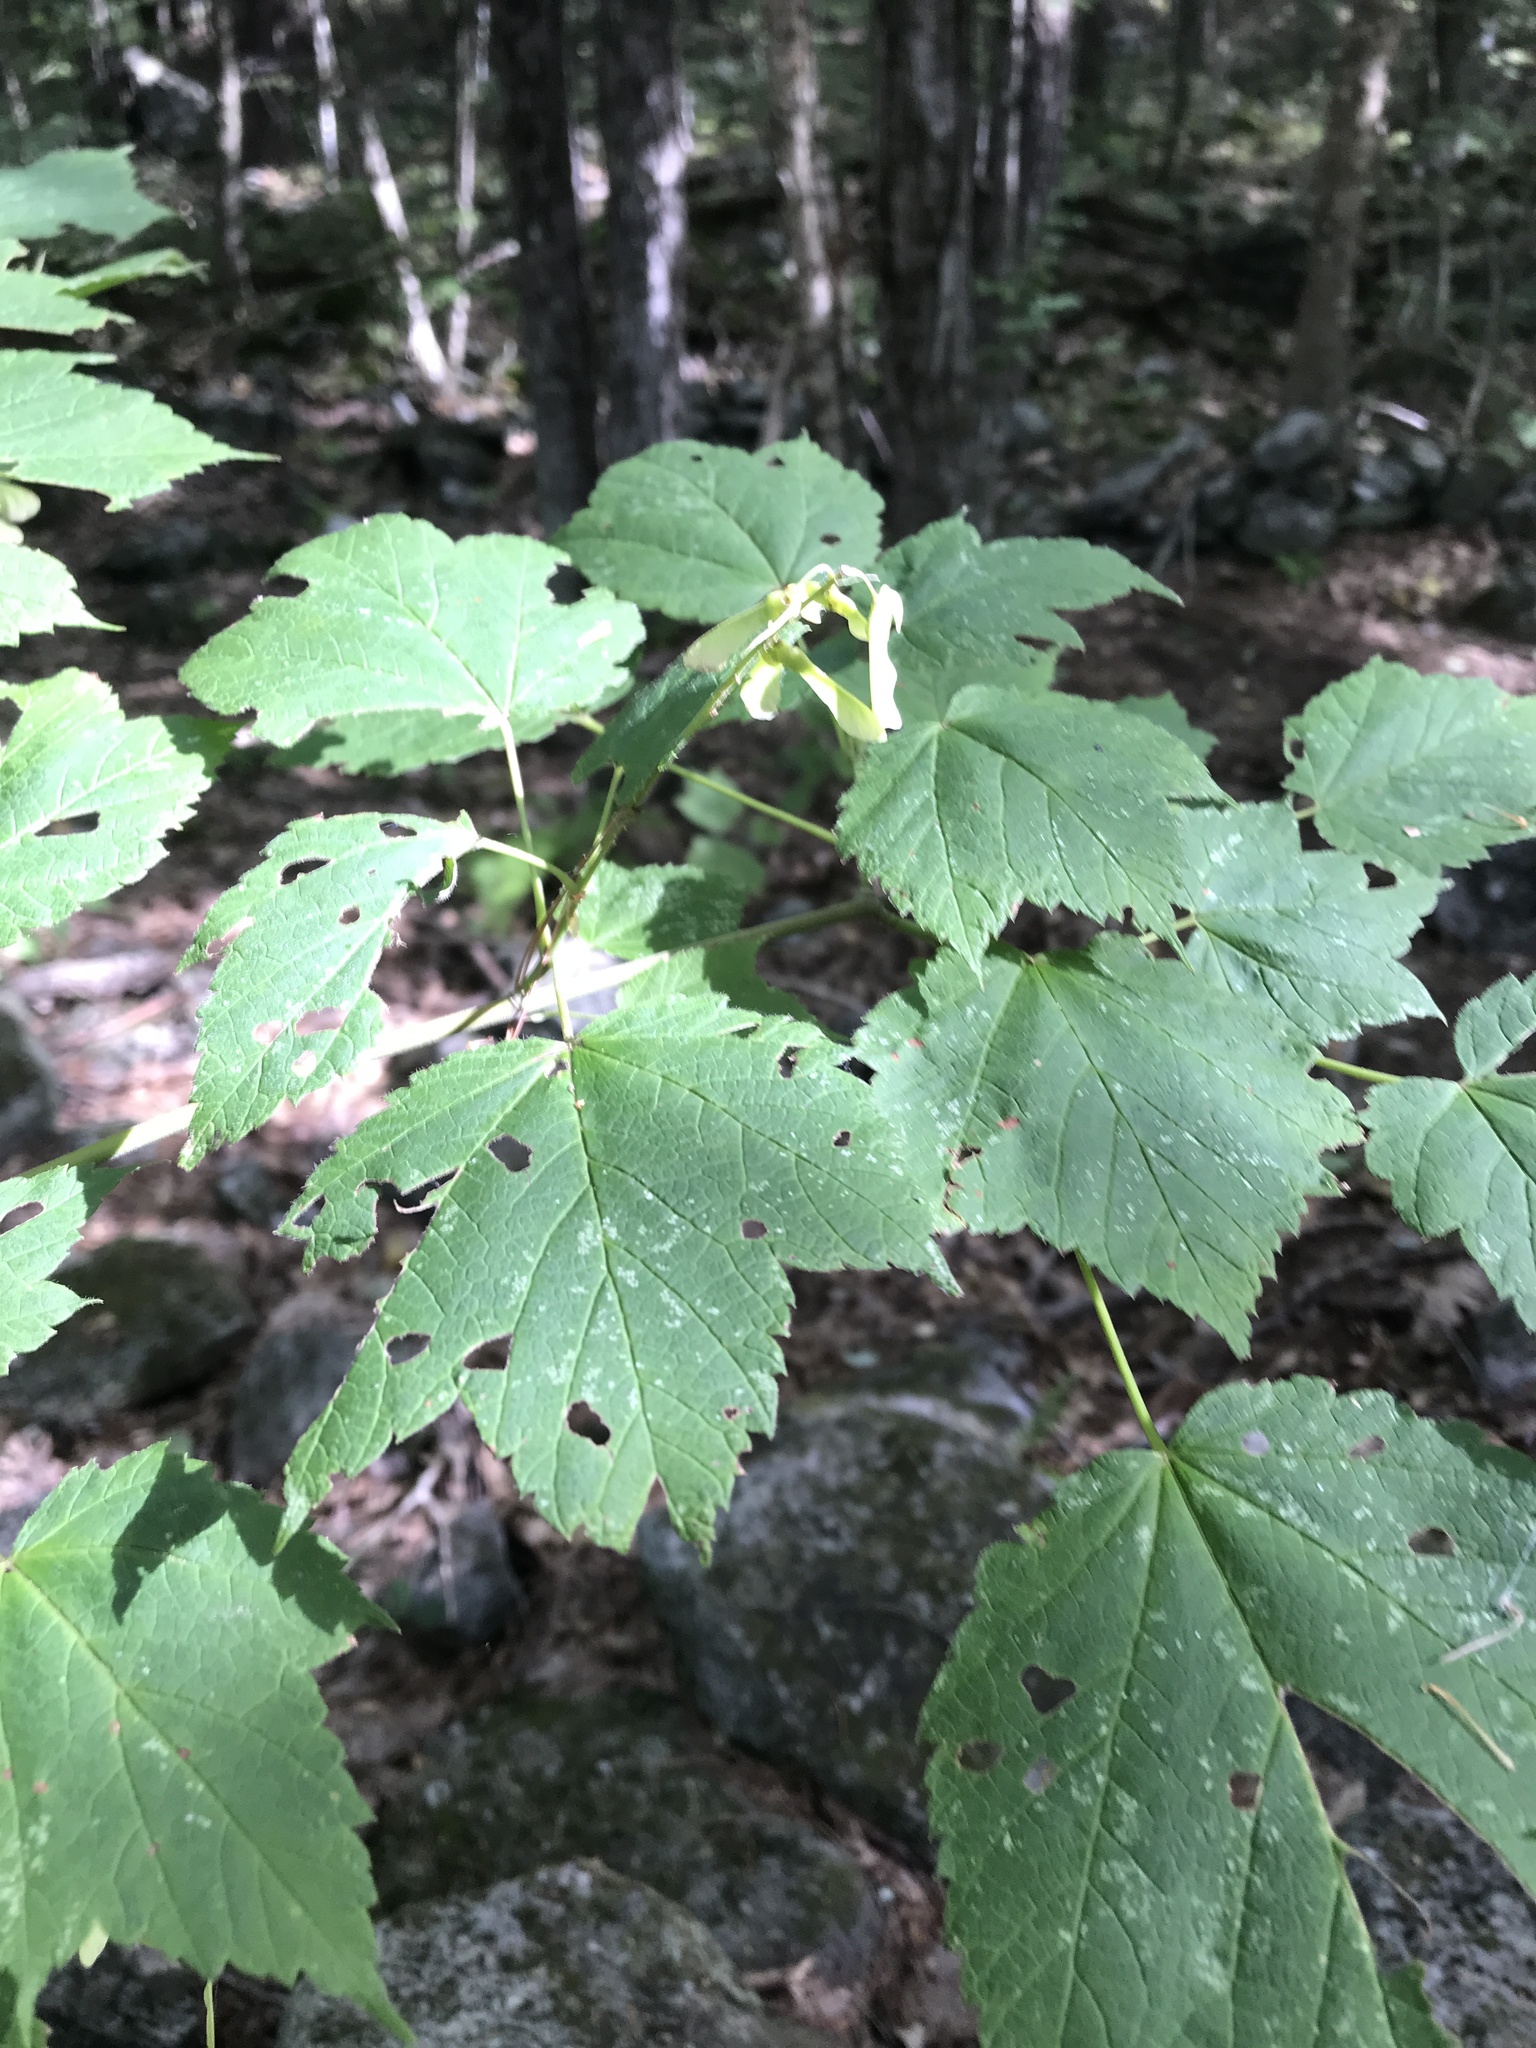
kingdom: Plantae
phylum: Tracheophyta
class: Magnoliopsida
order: Sapindales
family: Sapindaceae
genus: Acer
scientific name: Acer spicatum
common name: Mountain maple
